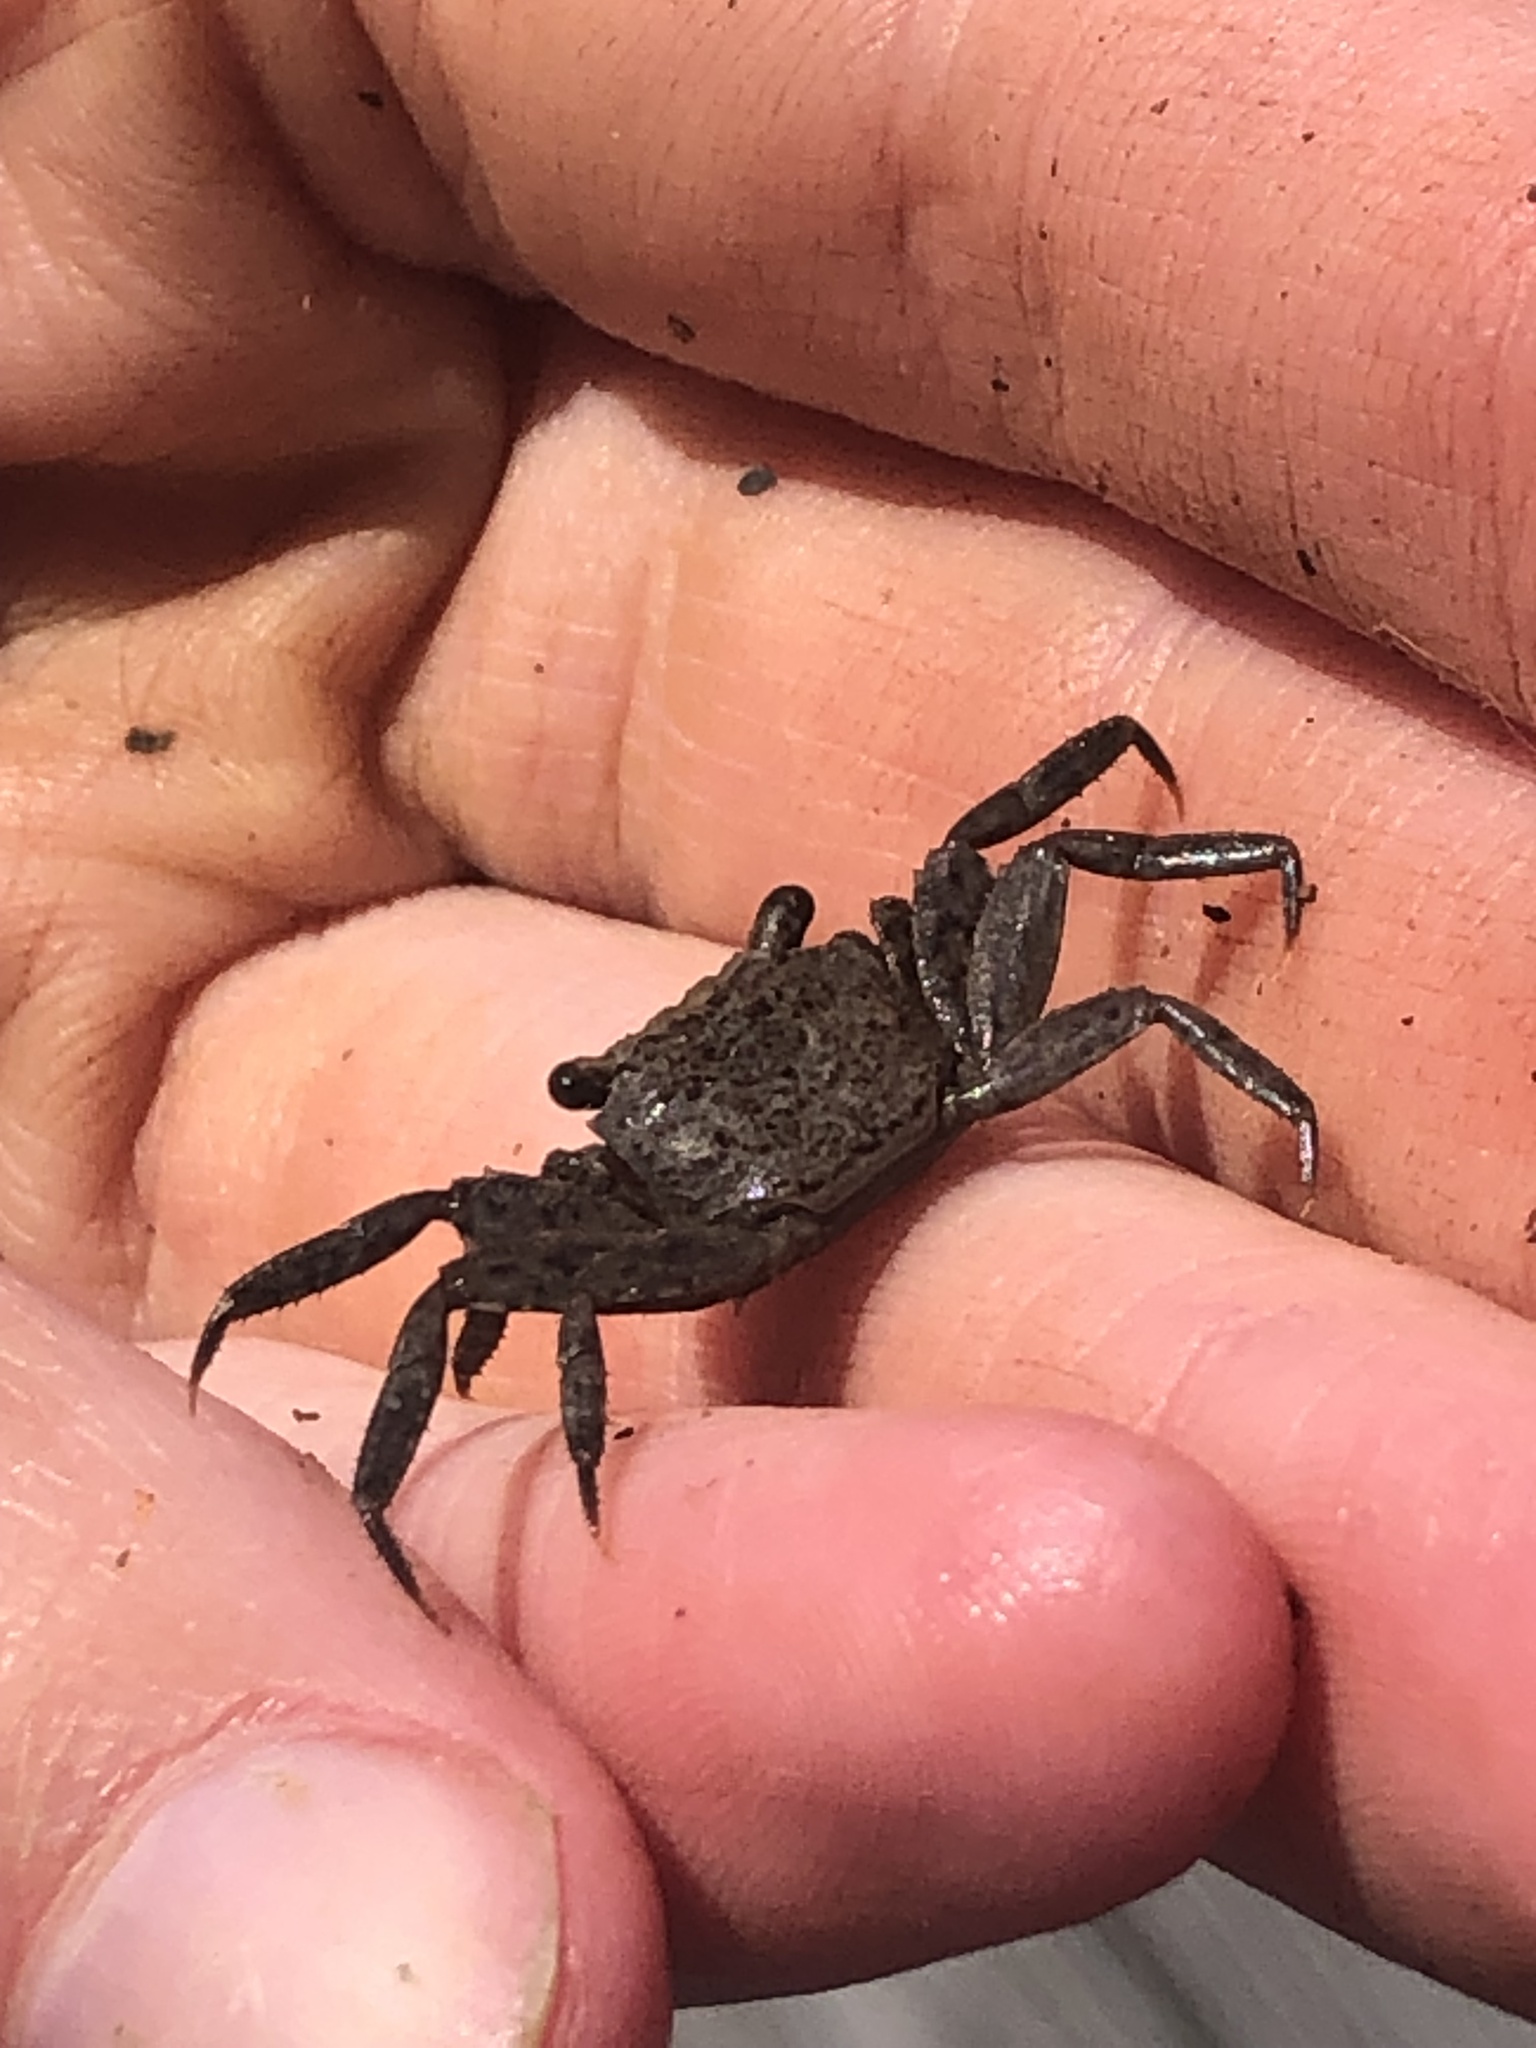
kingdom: Animalia
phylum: Arthropoda
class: Malacostraca
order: Decapoda
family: Sesarmidae
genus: Armases
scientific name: Armases cinereum
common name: Squareback marsh crab
